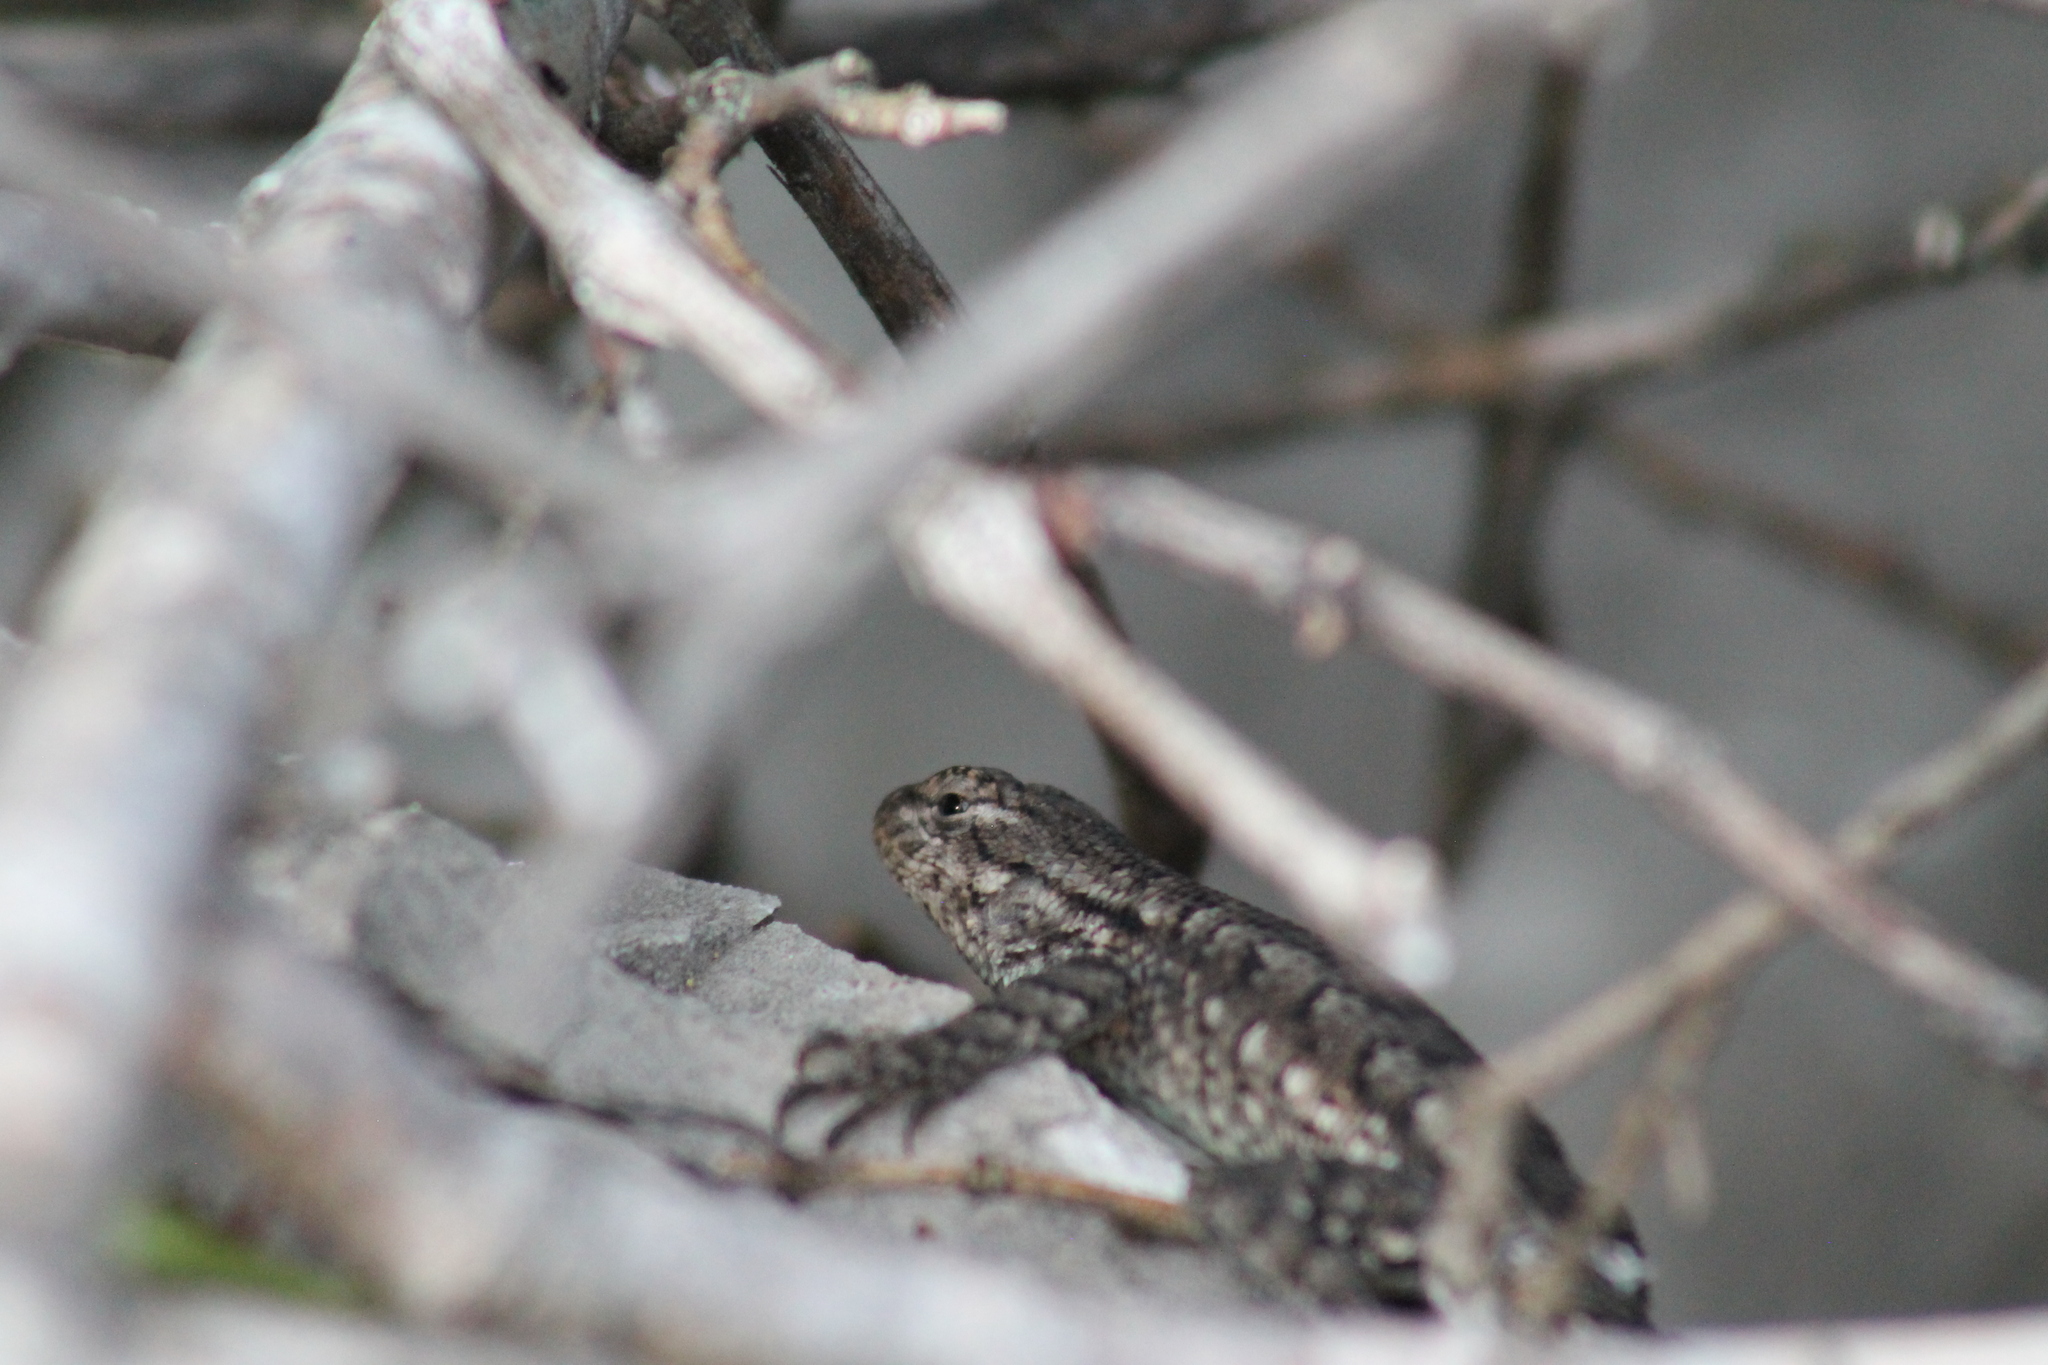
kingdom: Animalia
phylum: Chordata
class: Squamata
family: Phrynosomatidae
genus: Sceloporus
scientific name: Sceloporus undulatus
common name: Eastern fence lizard
